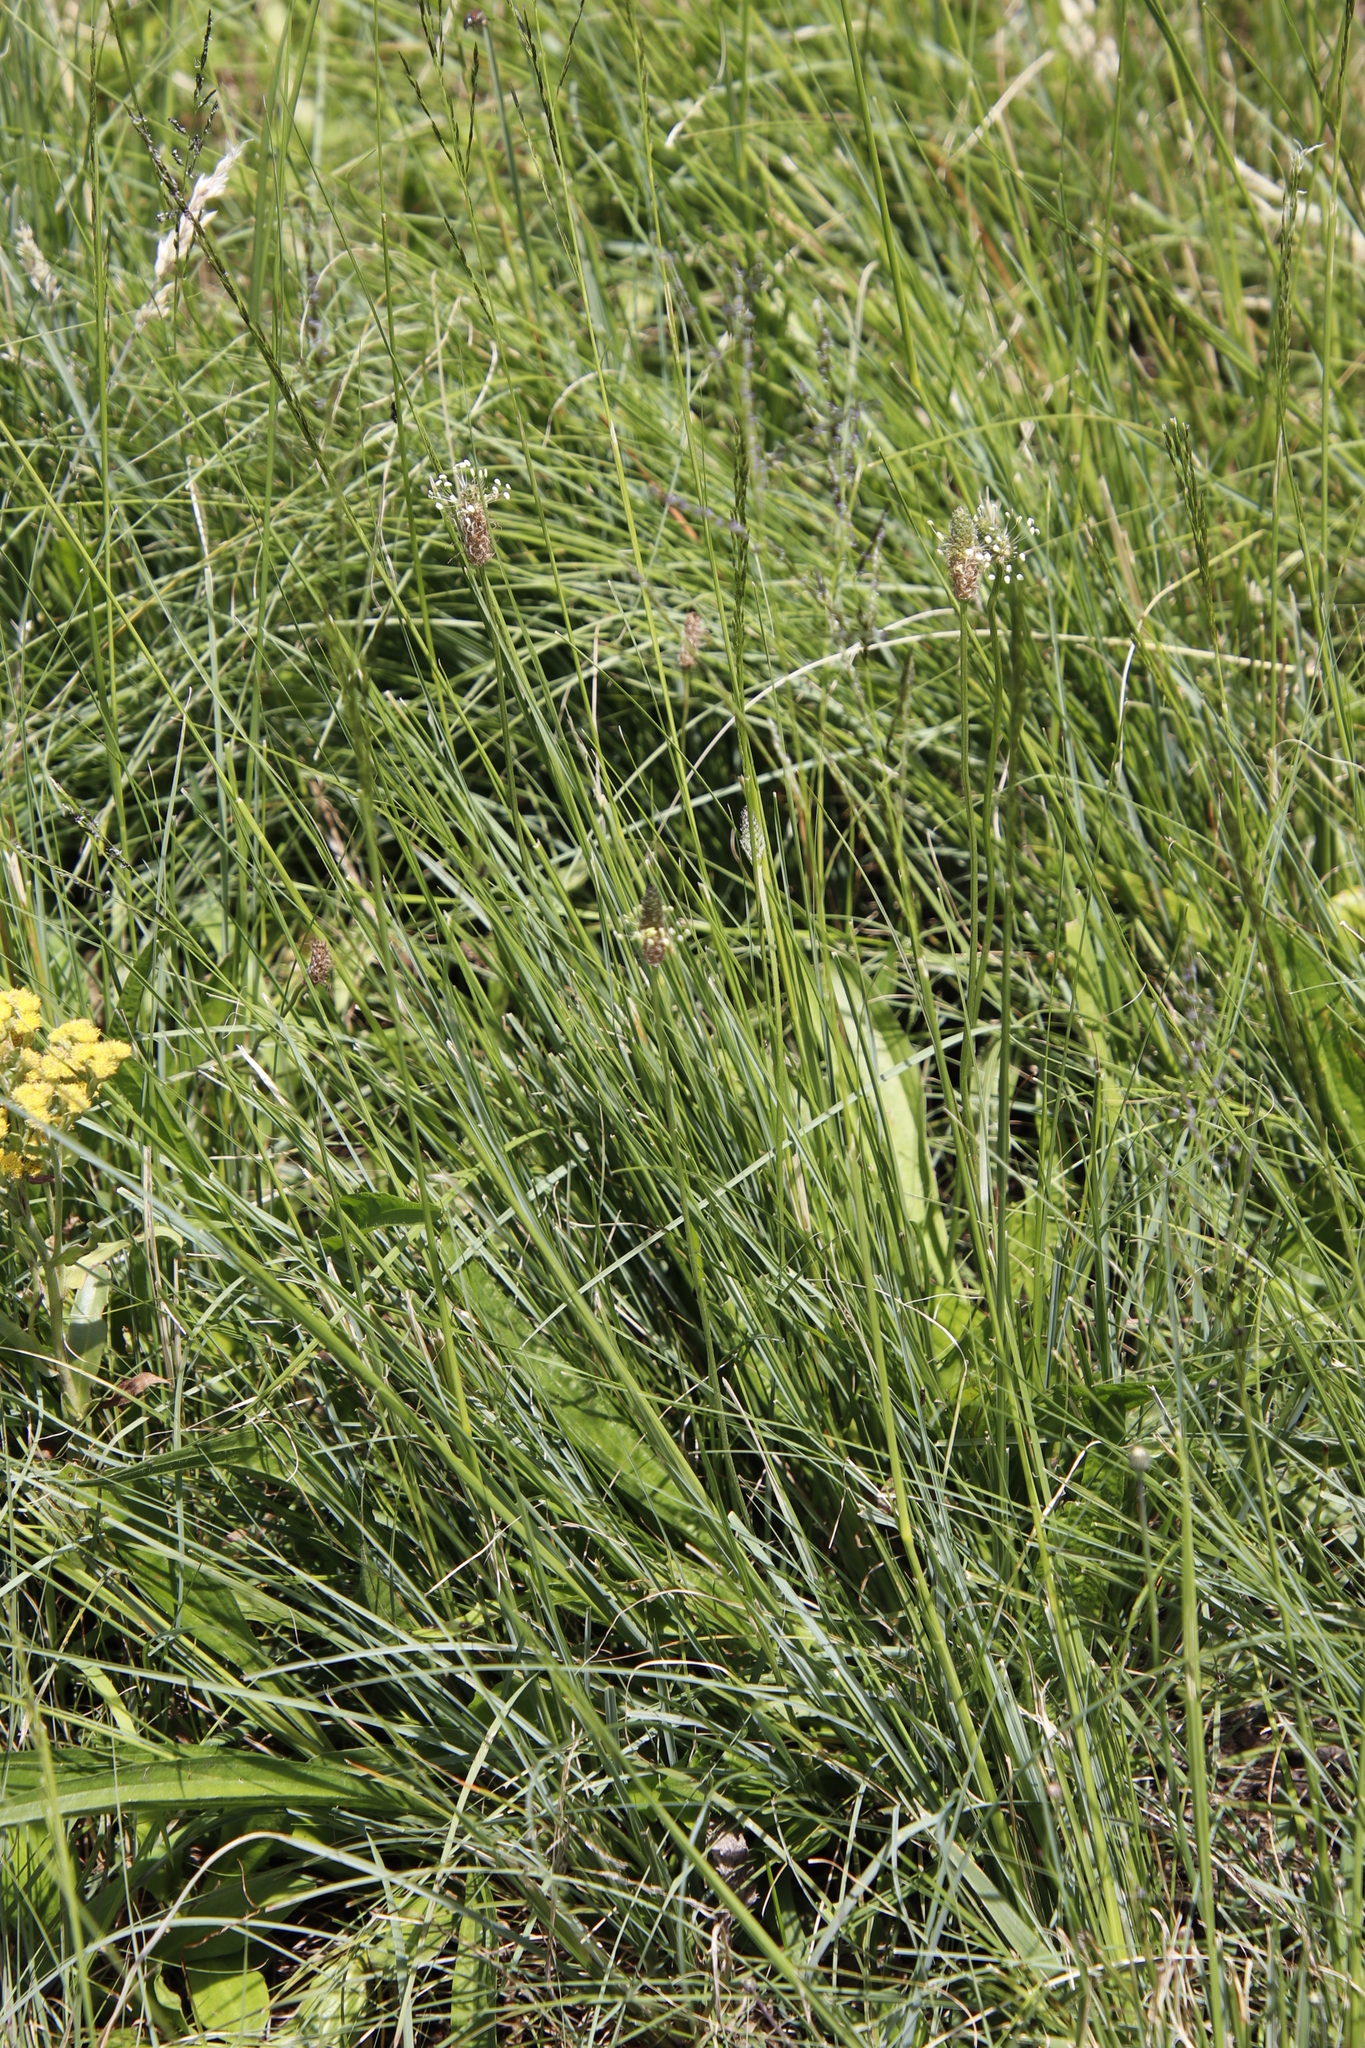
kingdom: Plantae
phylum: Tracheophyta
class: Magnoliopsida
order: Lamiales
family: Plantaginaceae
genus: Plantago
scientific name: Plantago lanceolata
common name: Ribwort plantain
